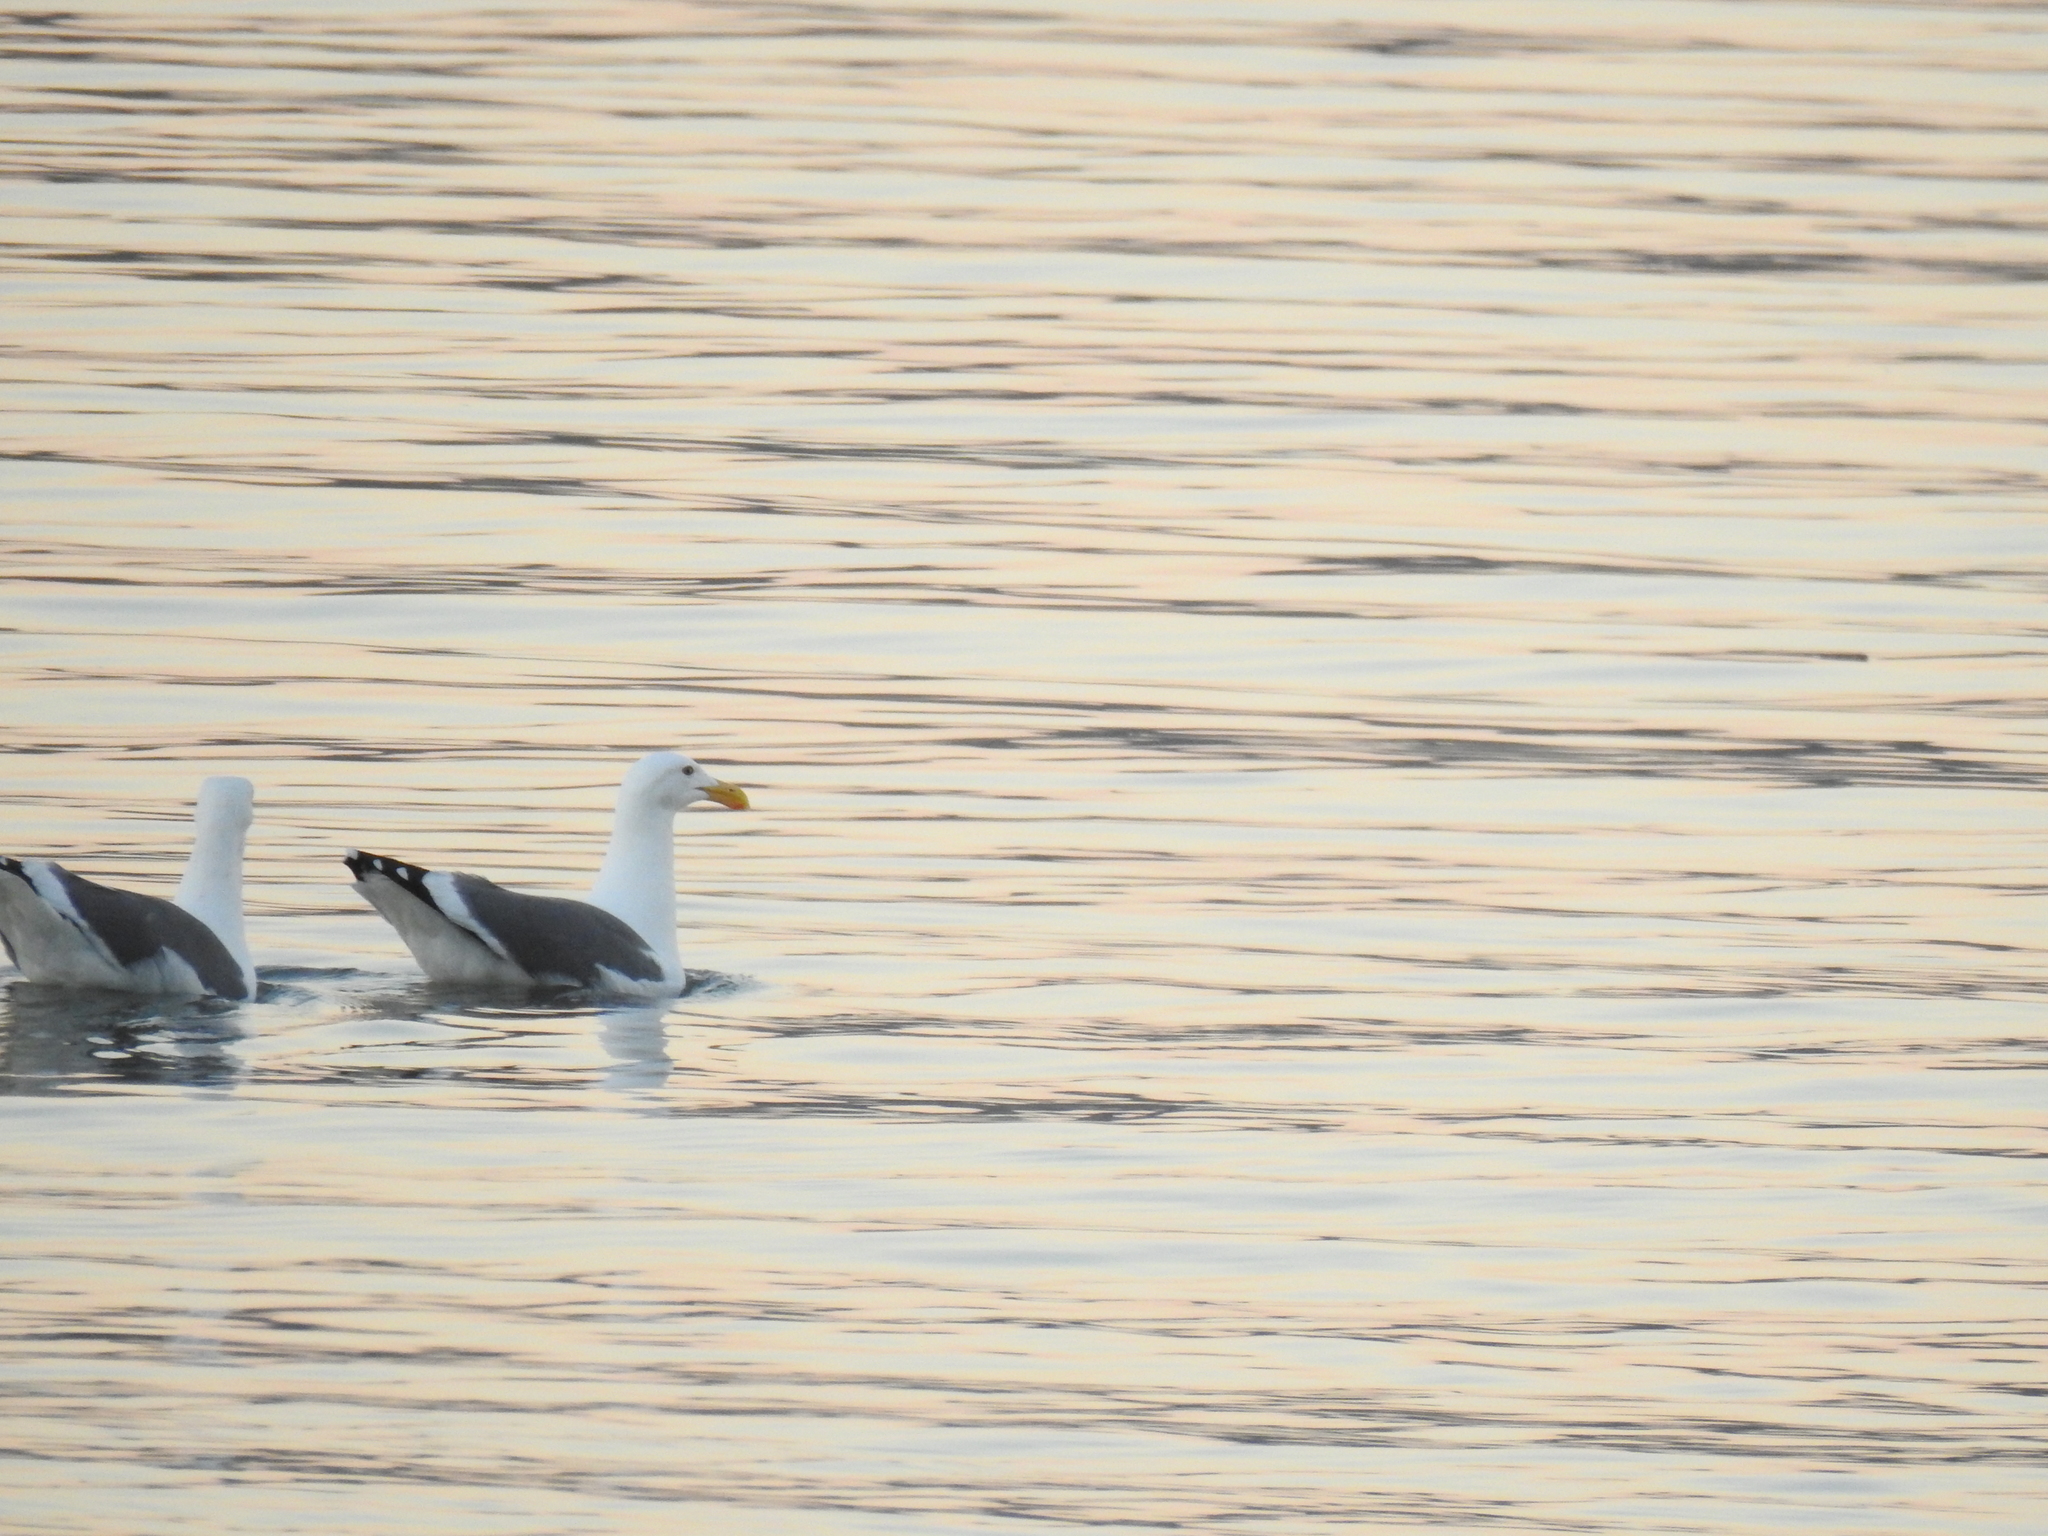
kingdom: Animalia
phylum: Chordata
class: Aves
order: Charadriiformes
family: Laridae
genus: Larus
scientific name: Larus occidentalis
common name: Western gull
